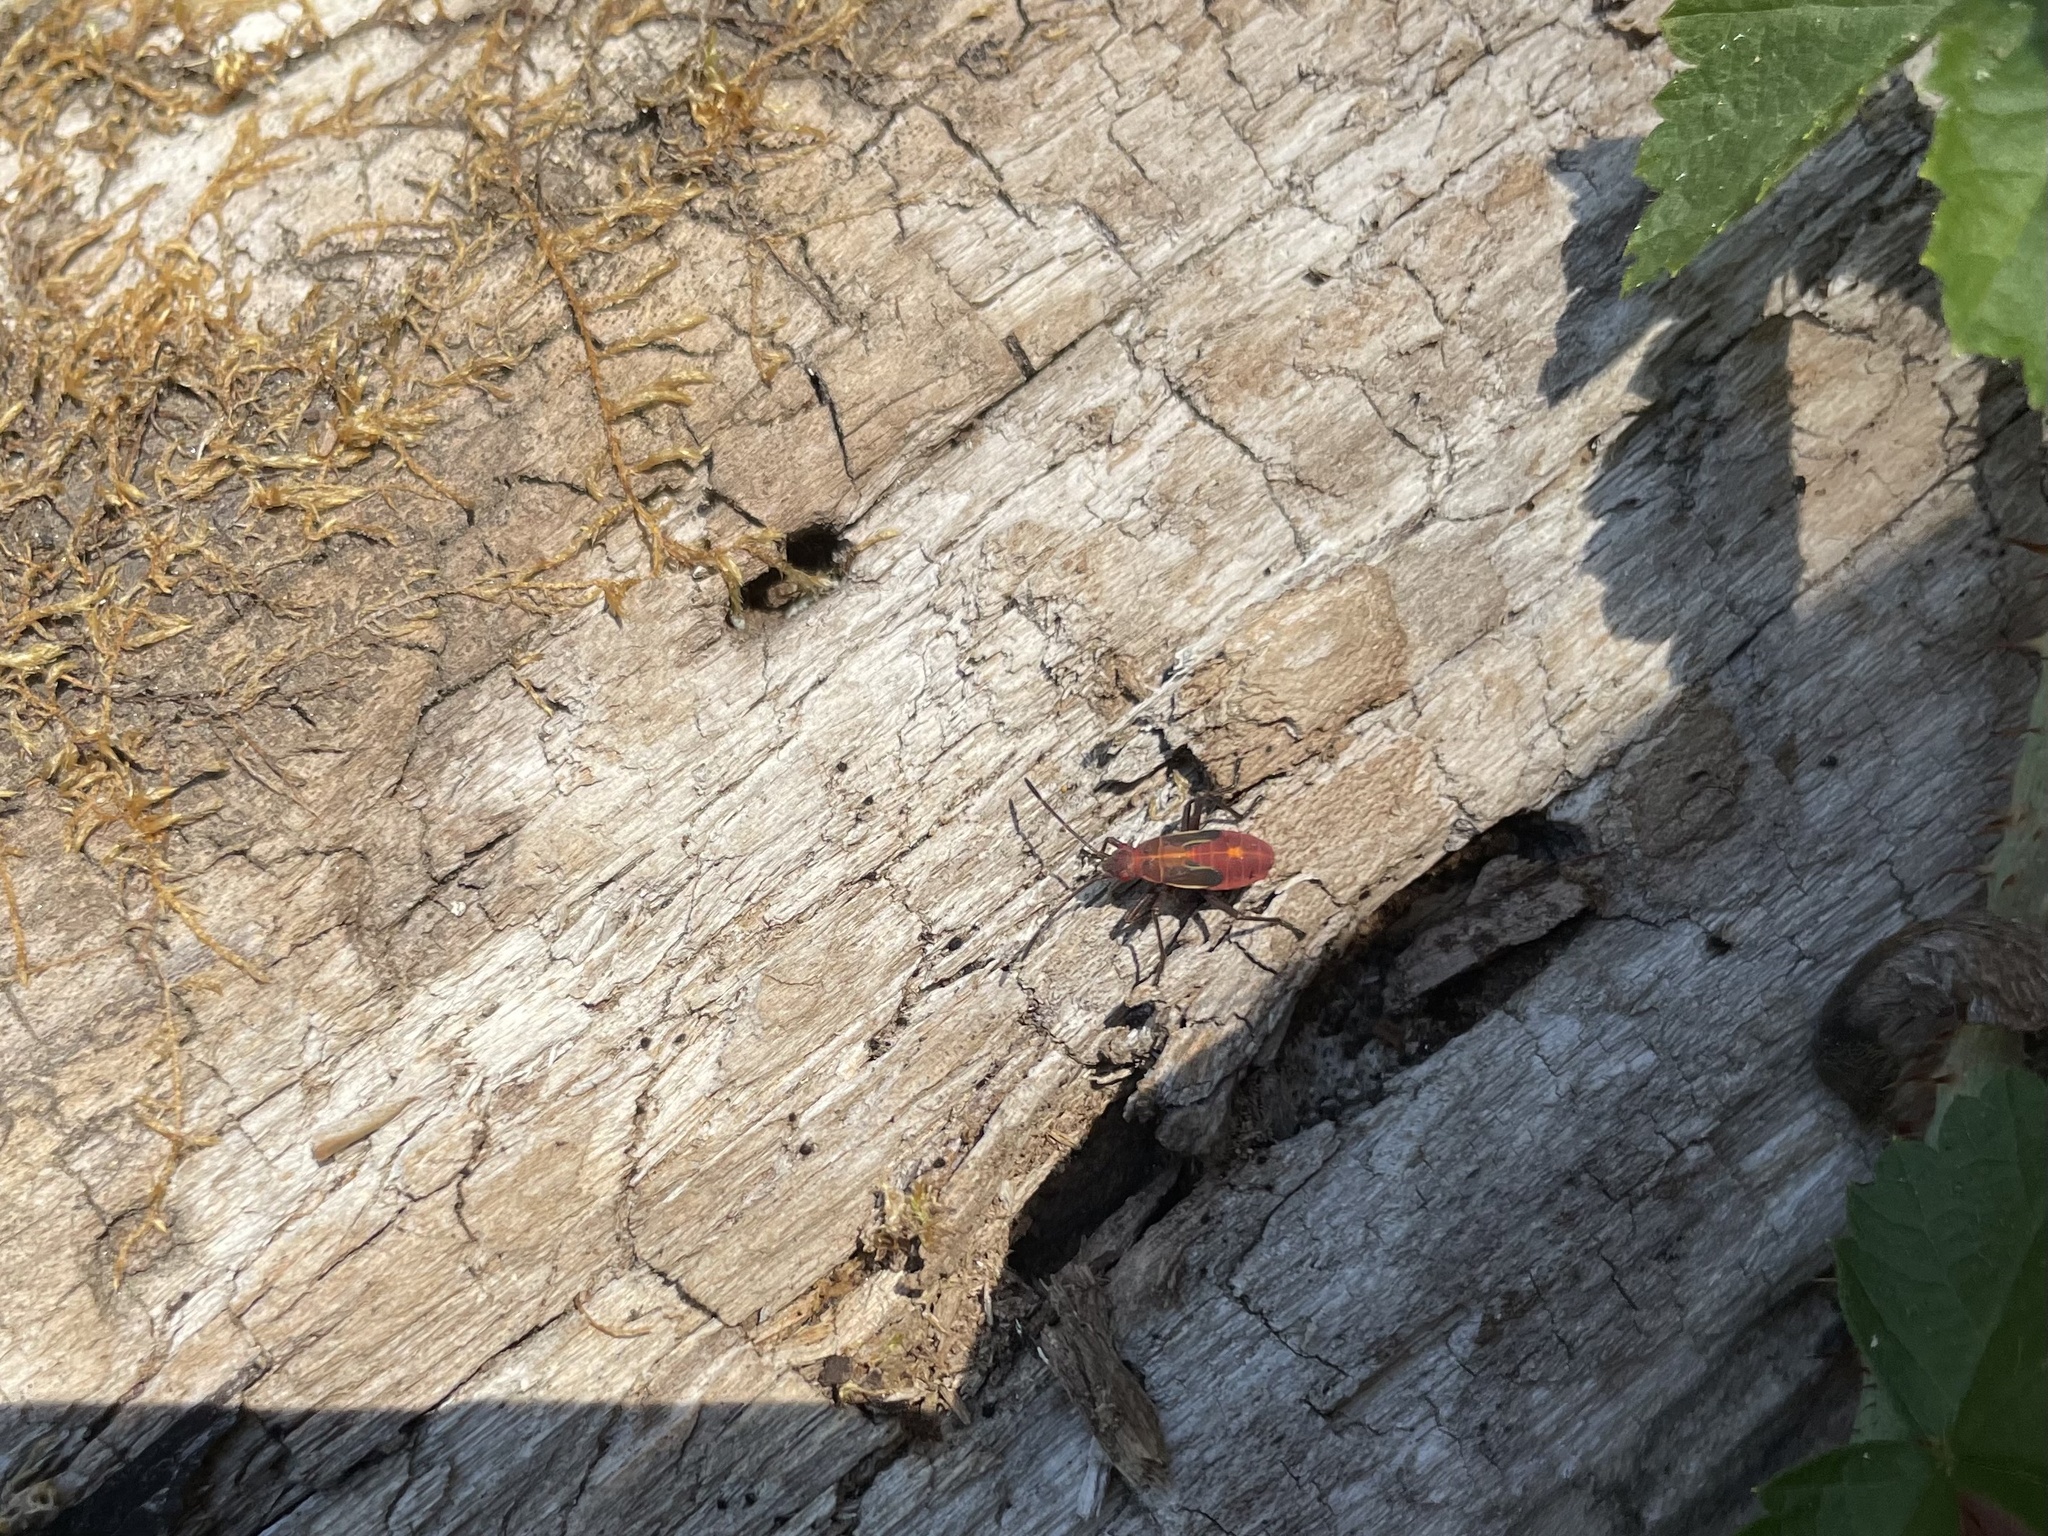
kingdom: Animalia
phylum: Arthropoda
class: Insecta
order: Hemiptera
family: Rhopalidae
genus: Boisea
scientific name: Boisea rubrolineata
